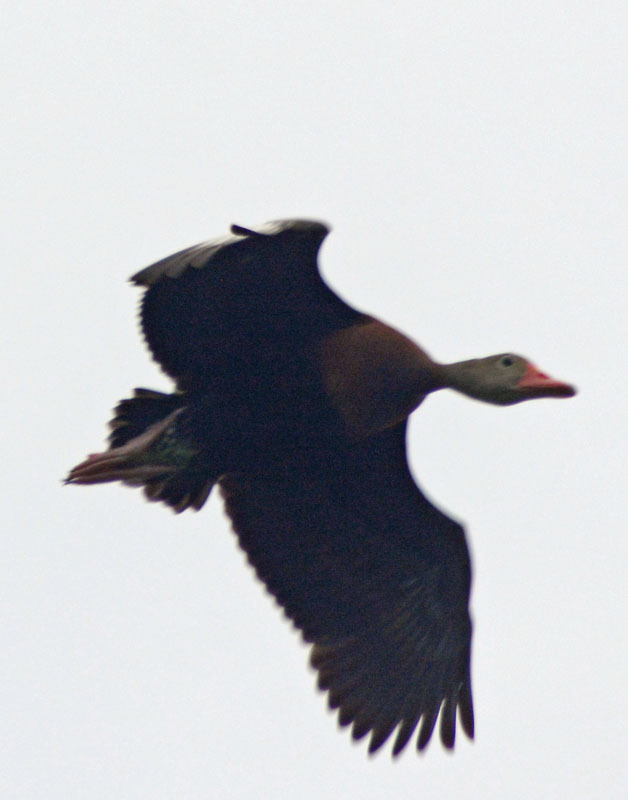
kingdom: Animalia
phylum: Chordata
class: Aves
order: Anseriformes
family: Anatidae
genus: Dendrocygna
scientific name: Dendrocygna autumnalis
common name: Black-bellied whistling duck
